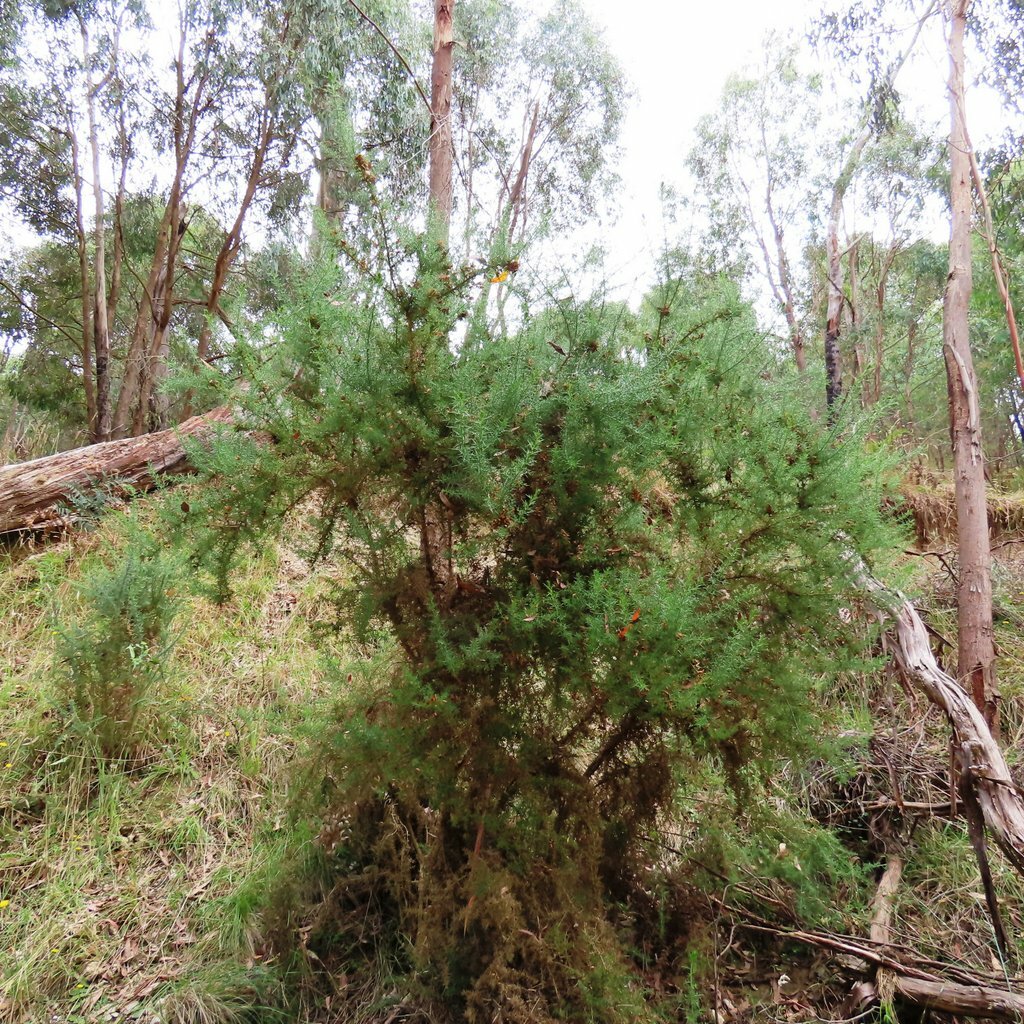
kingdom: Plantae
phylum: Tracheophyta
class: Magnoliopsida
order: Fabales
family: Fabaceae
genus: Ulex
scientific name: Ulex europaeus
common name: Common gorse
